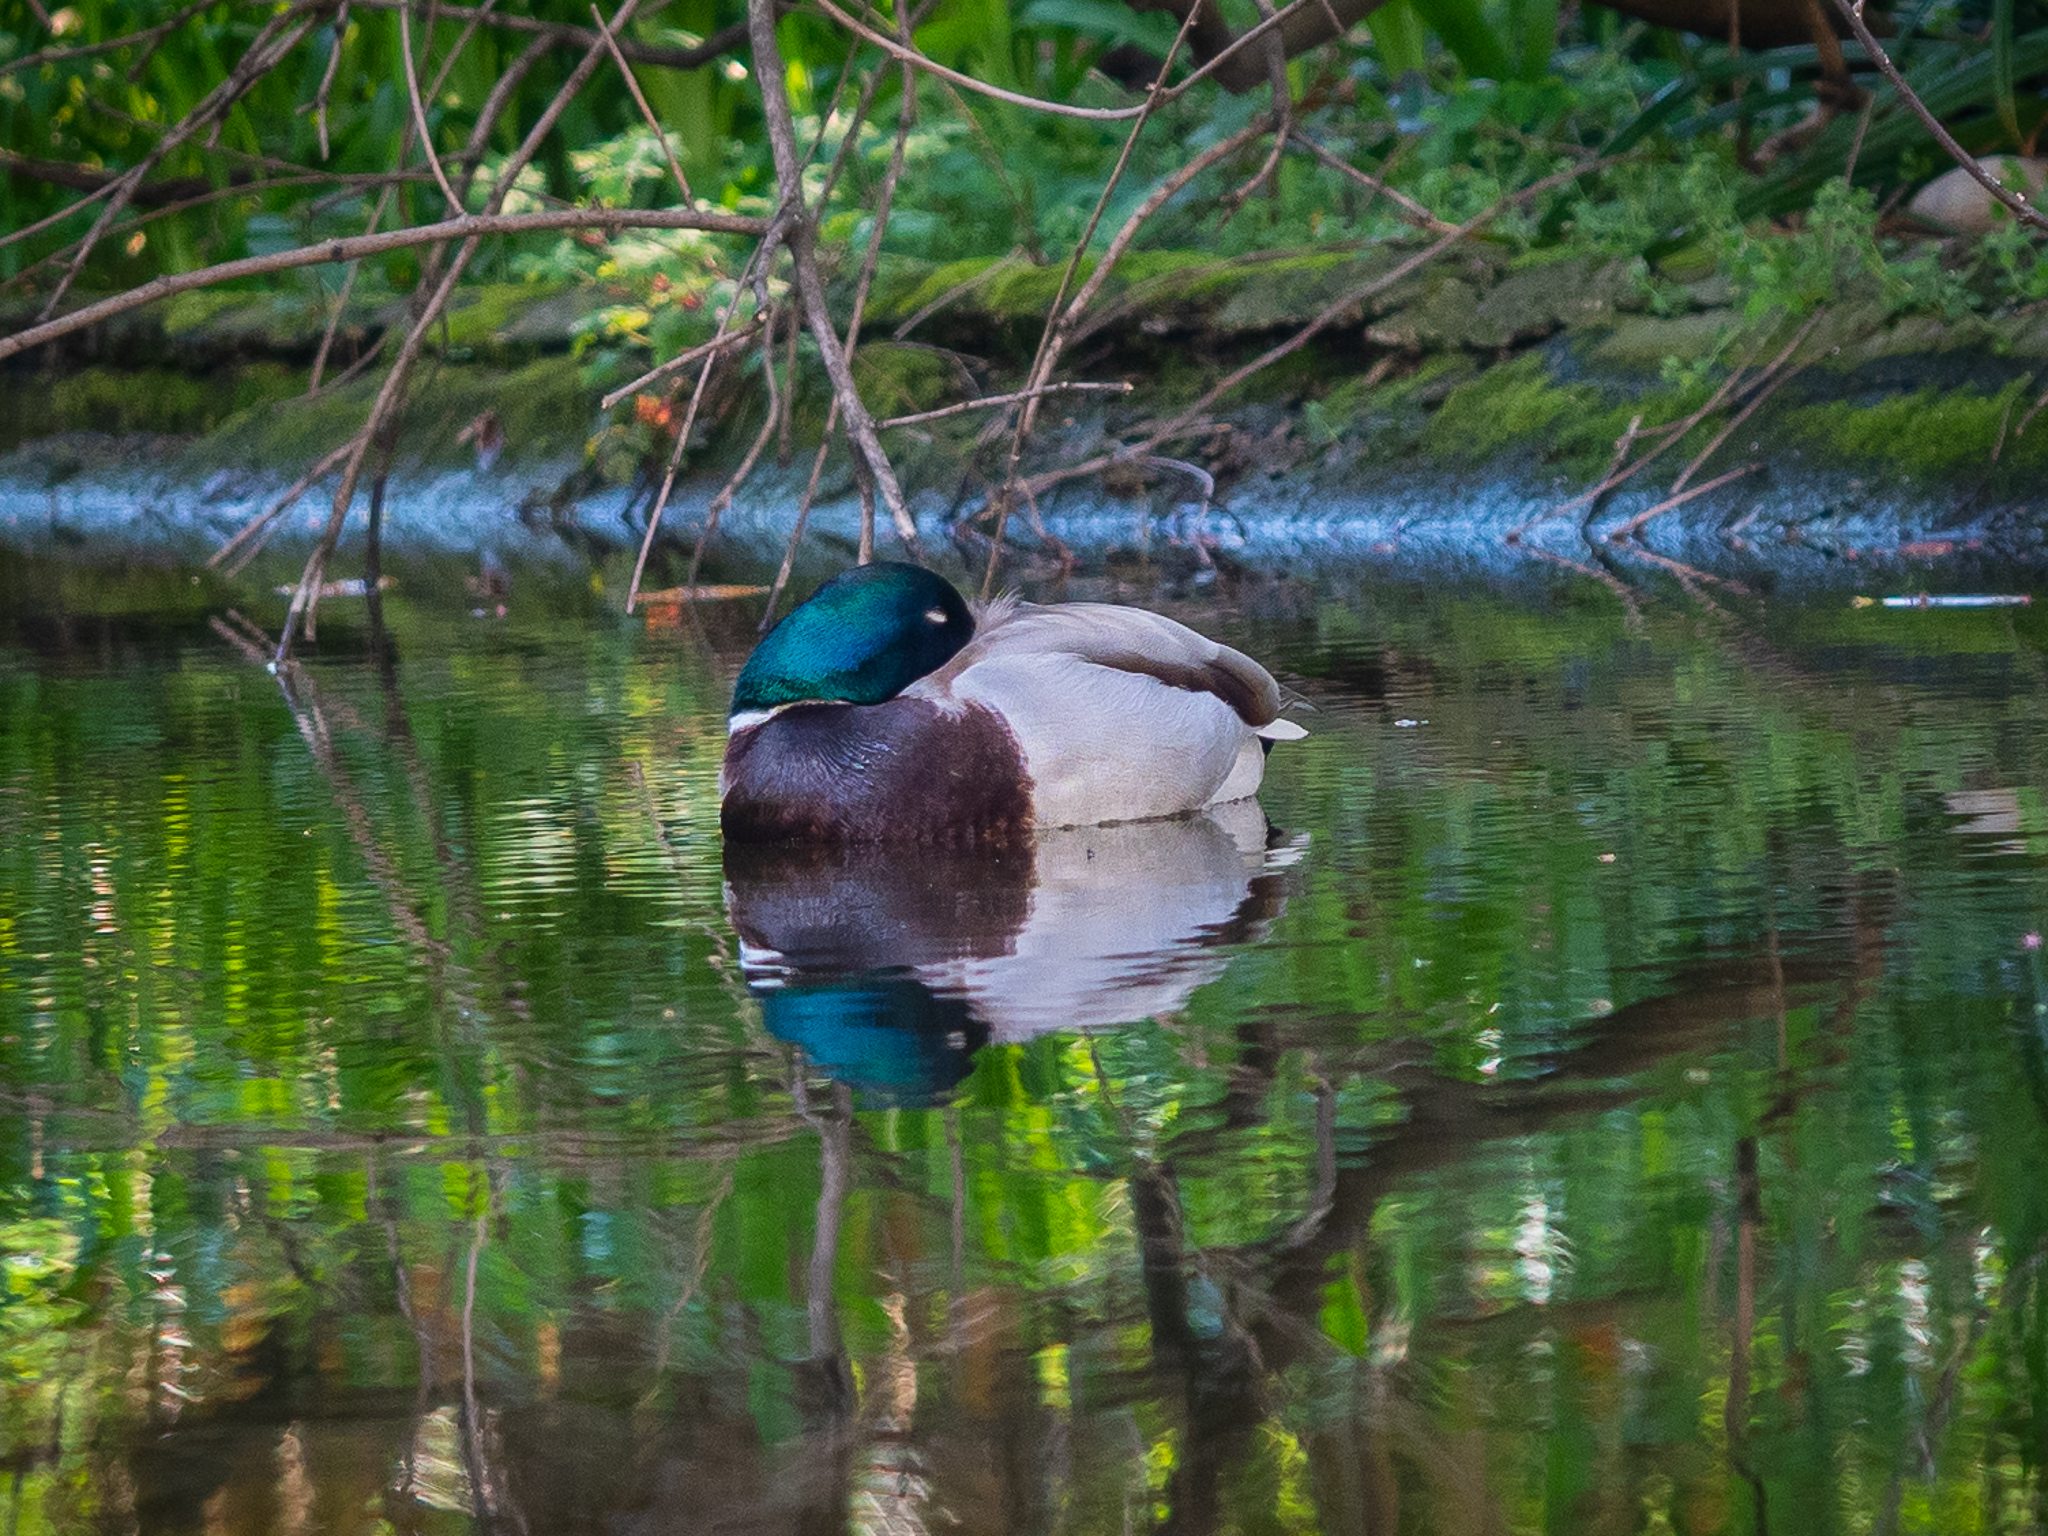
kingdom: Animalia
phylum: Chordata
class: Aves
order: Anseriformes
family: Anatidae
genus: Anas
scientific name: Anas platyrhynchos
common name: Mallard
